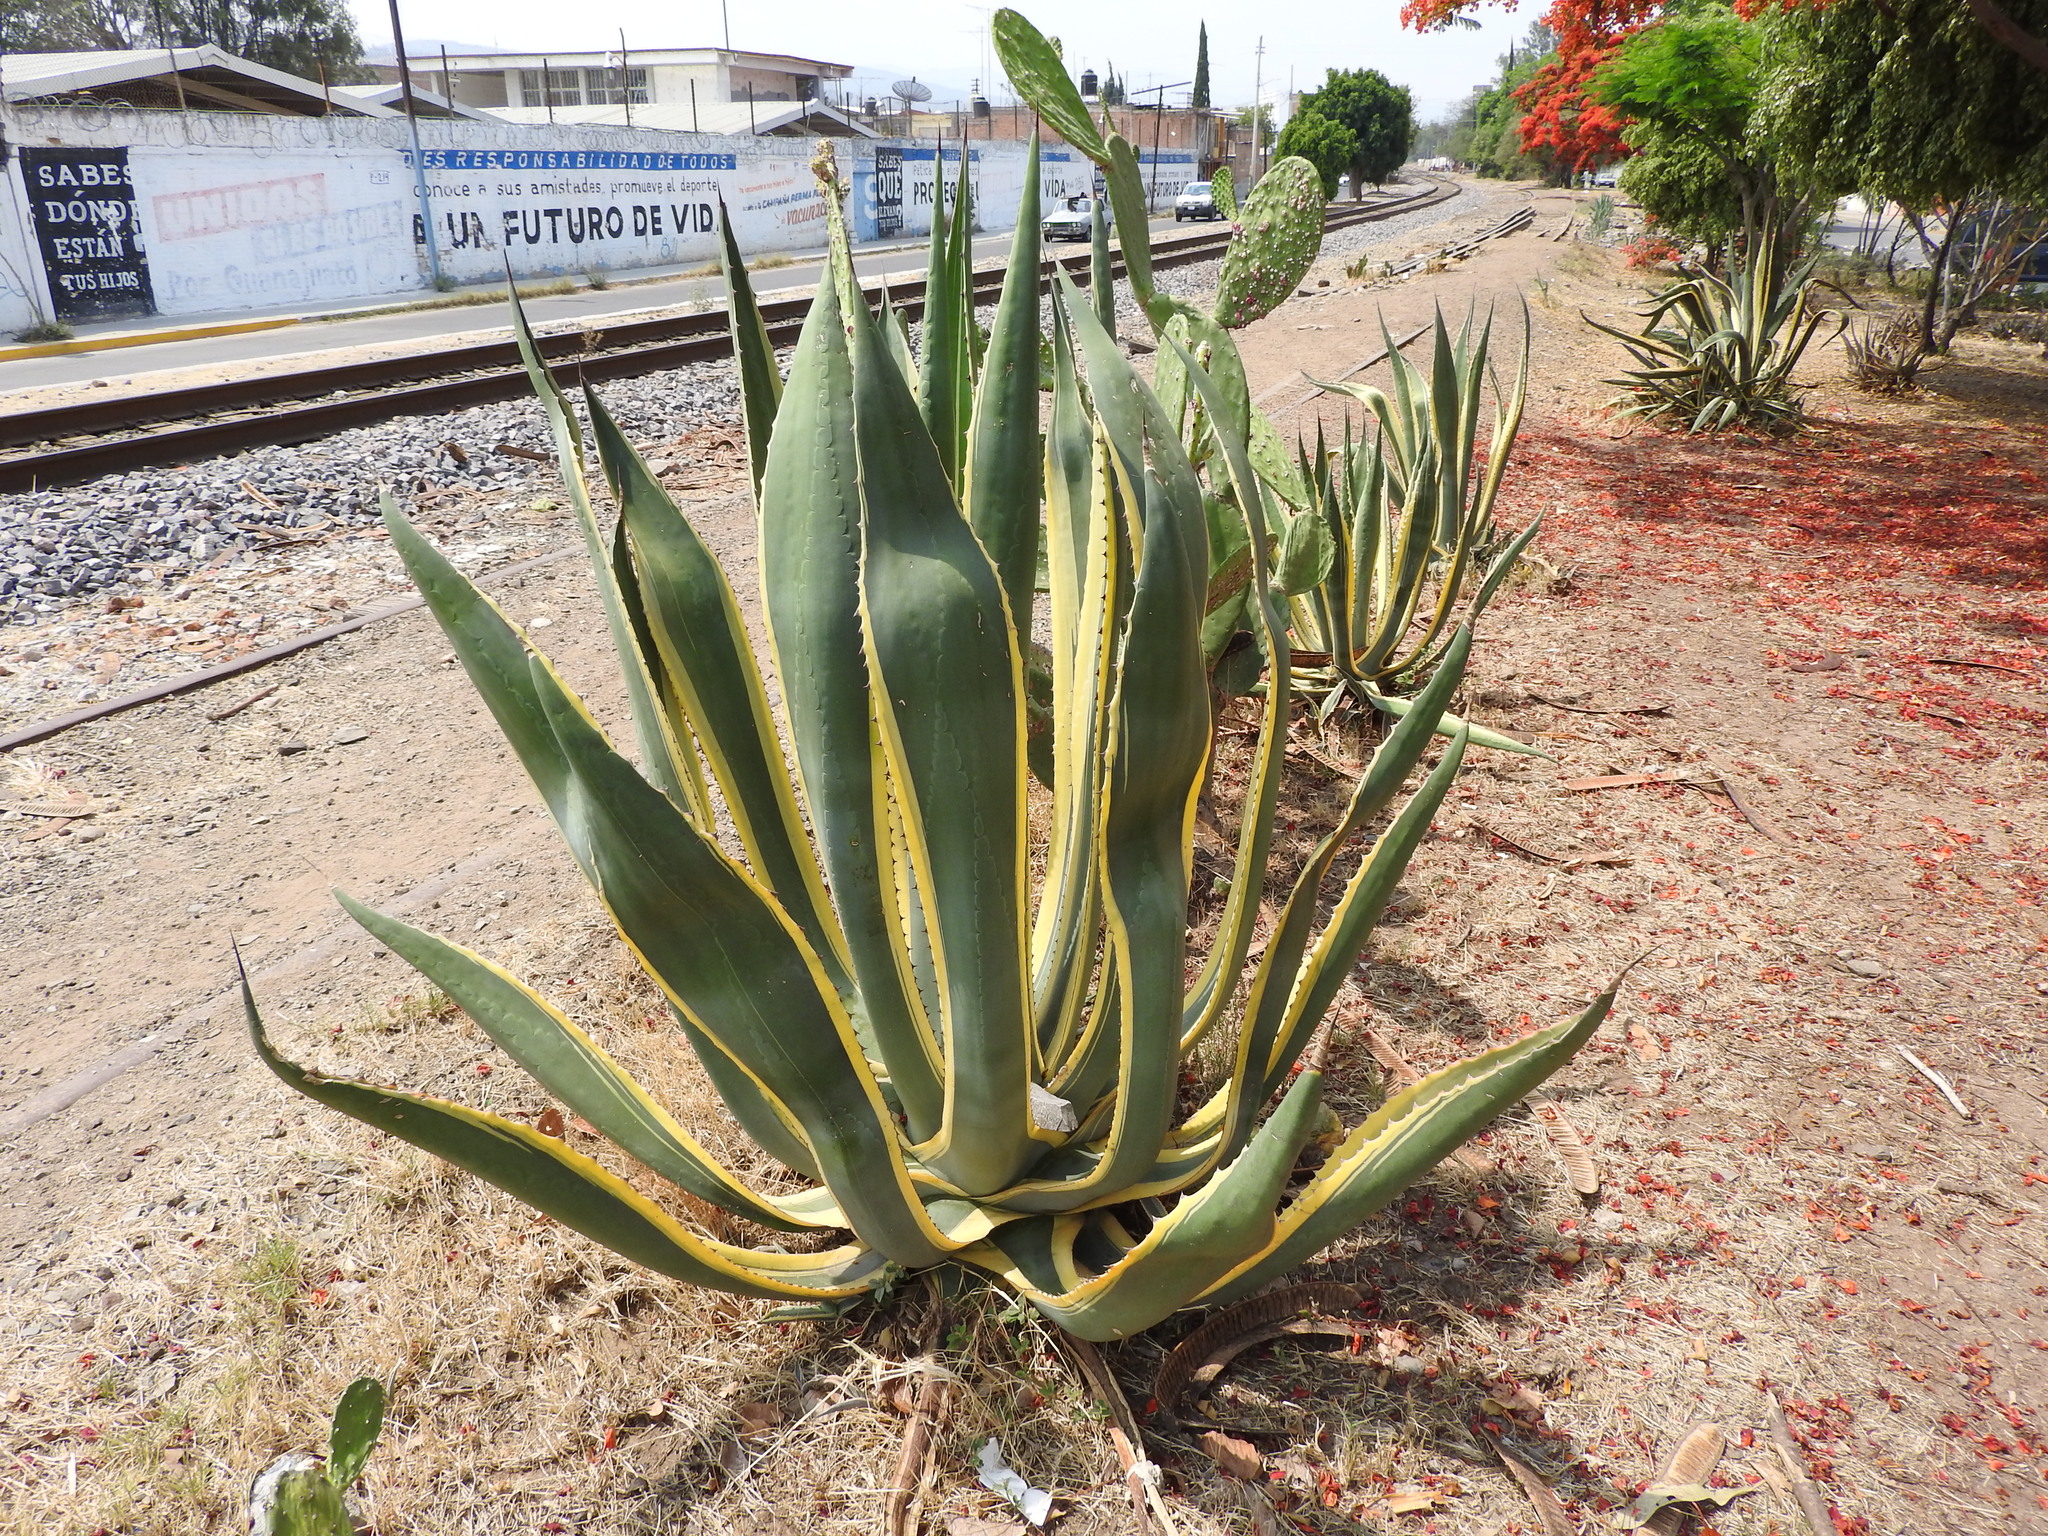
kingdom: Plantae
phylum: Tracheophyta
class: Liliopsida
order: Asparagales
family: Asparagaceae
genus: Agave
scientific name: Agave americana
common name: Centuryplant
